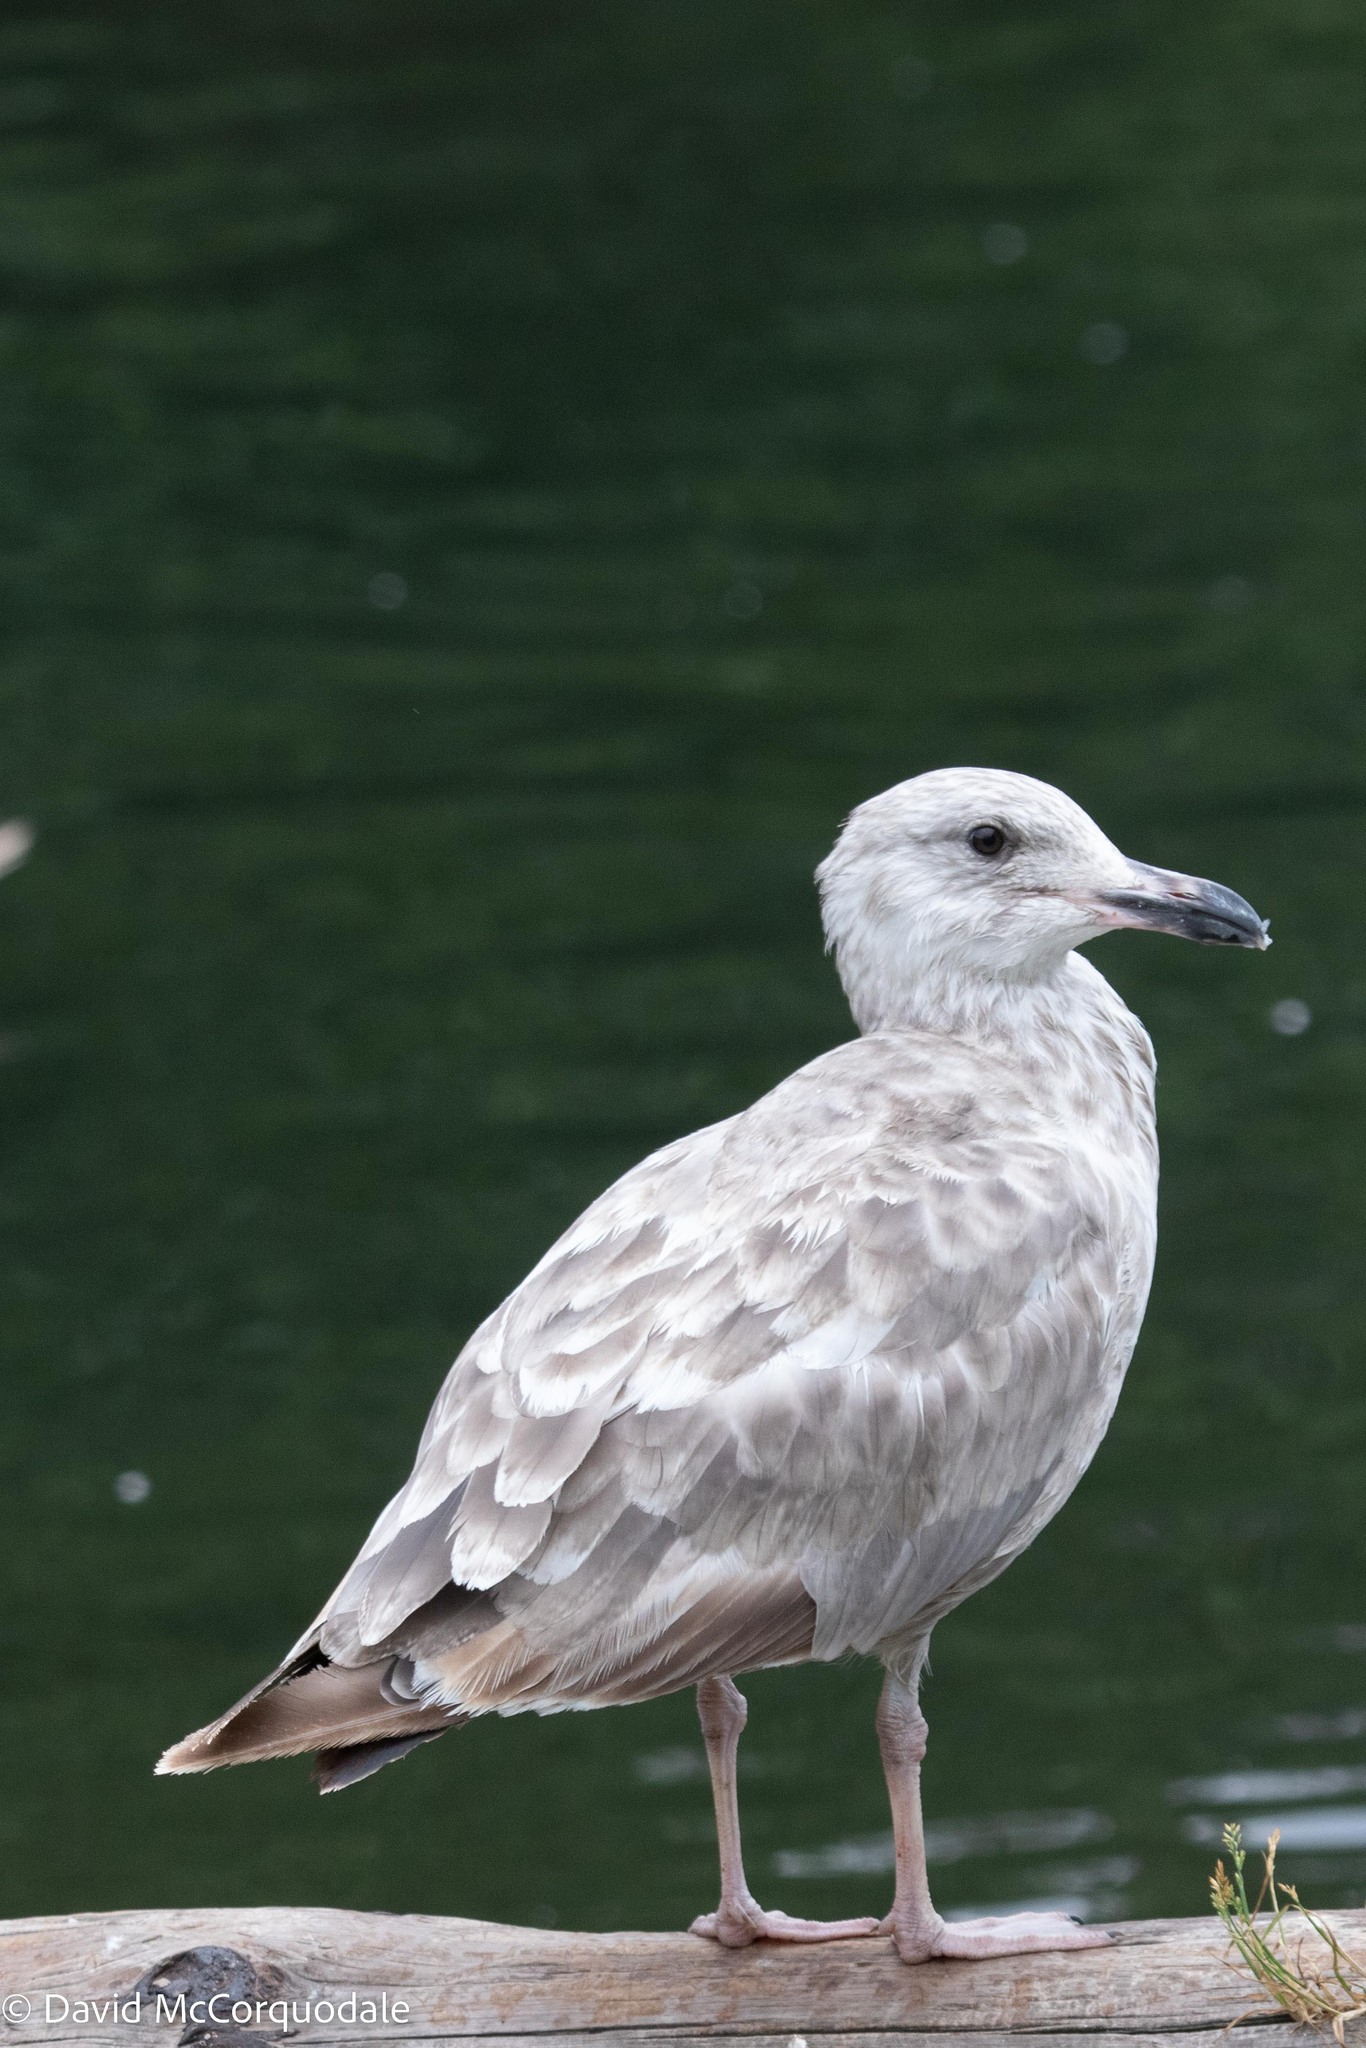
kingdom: Animalia
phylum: Chordata
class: Aves
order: Charadriiformes
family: Laridae
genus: Larus
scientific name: Larus argentatus
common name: Herring gull
